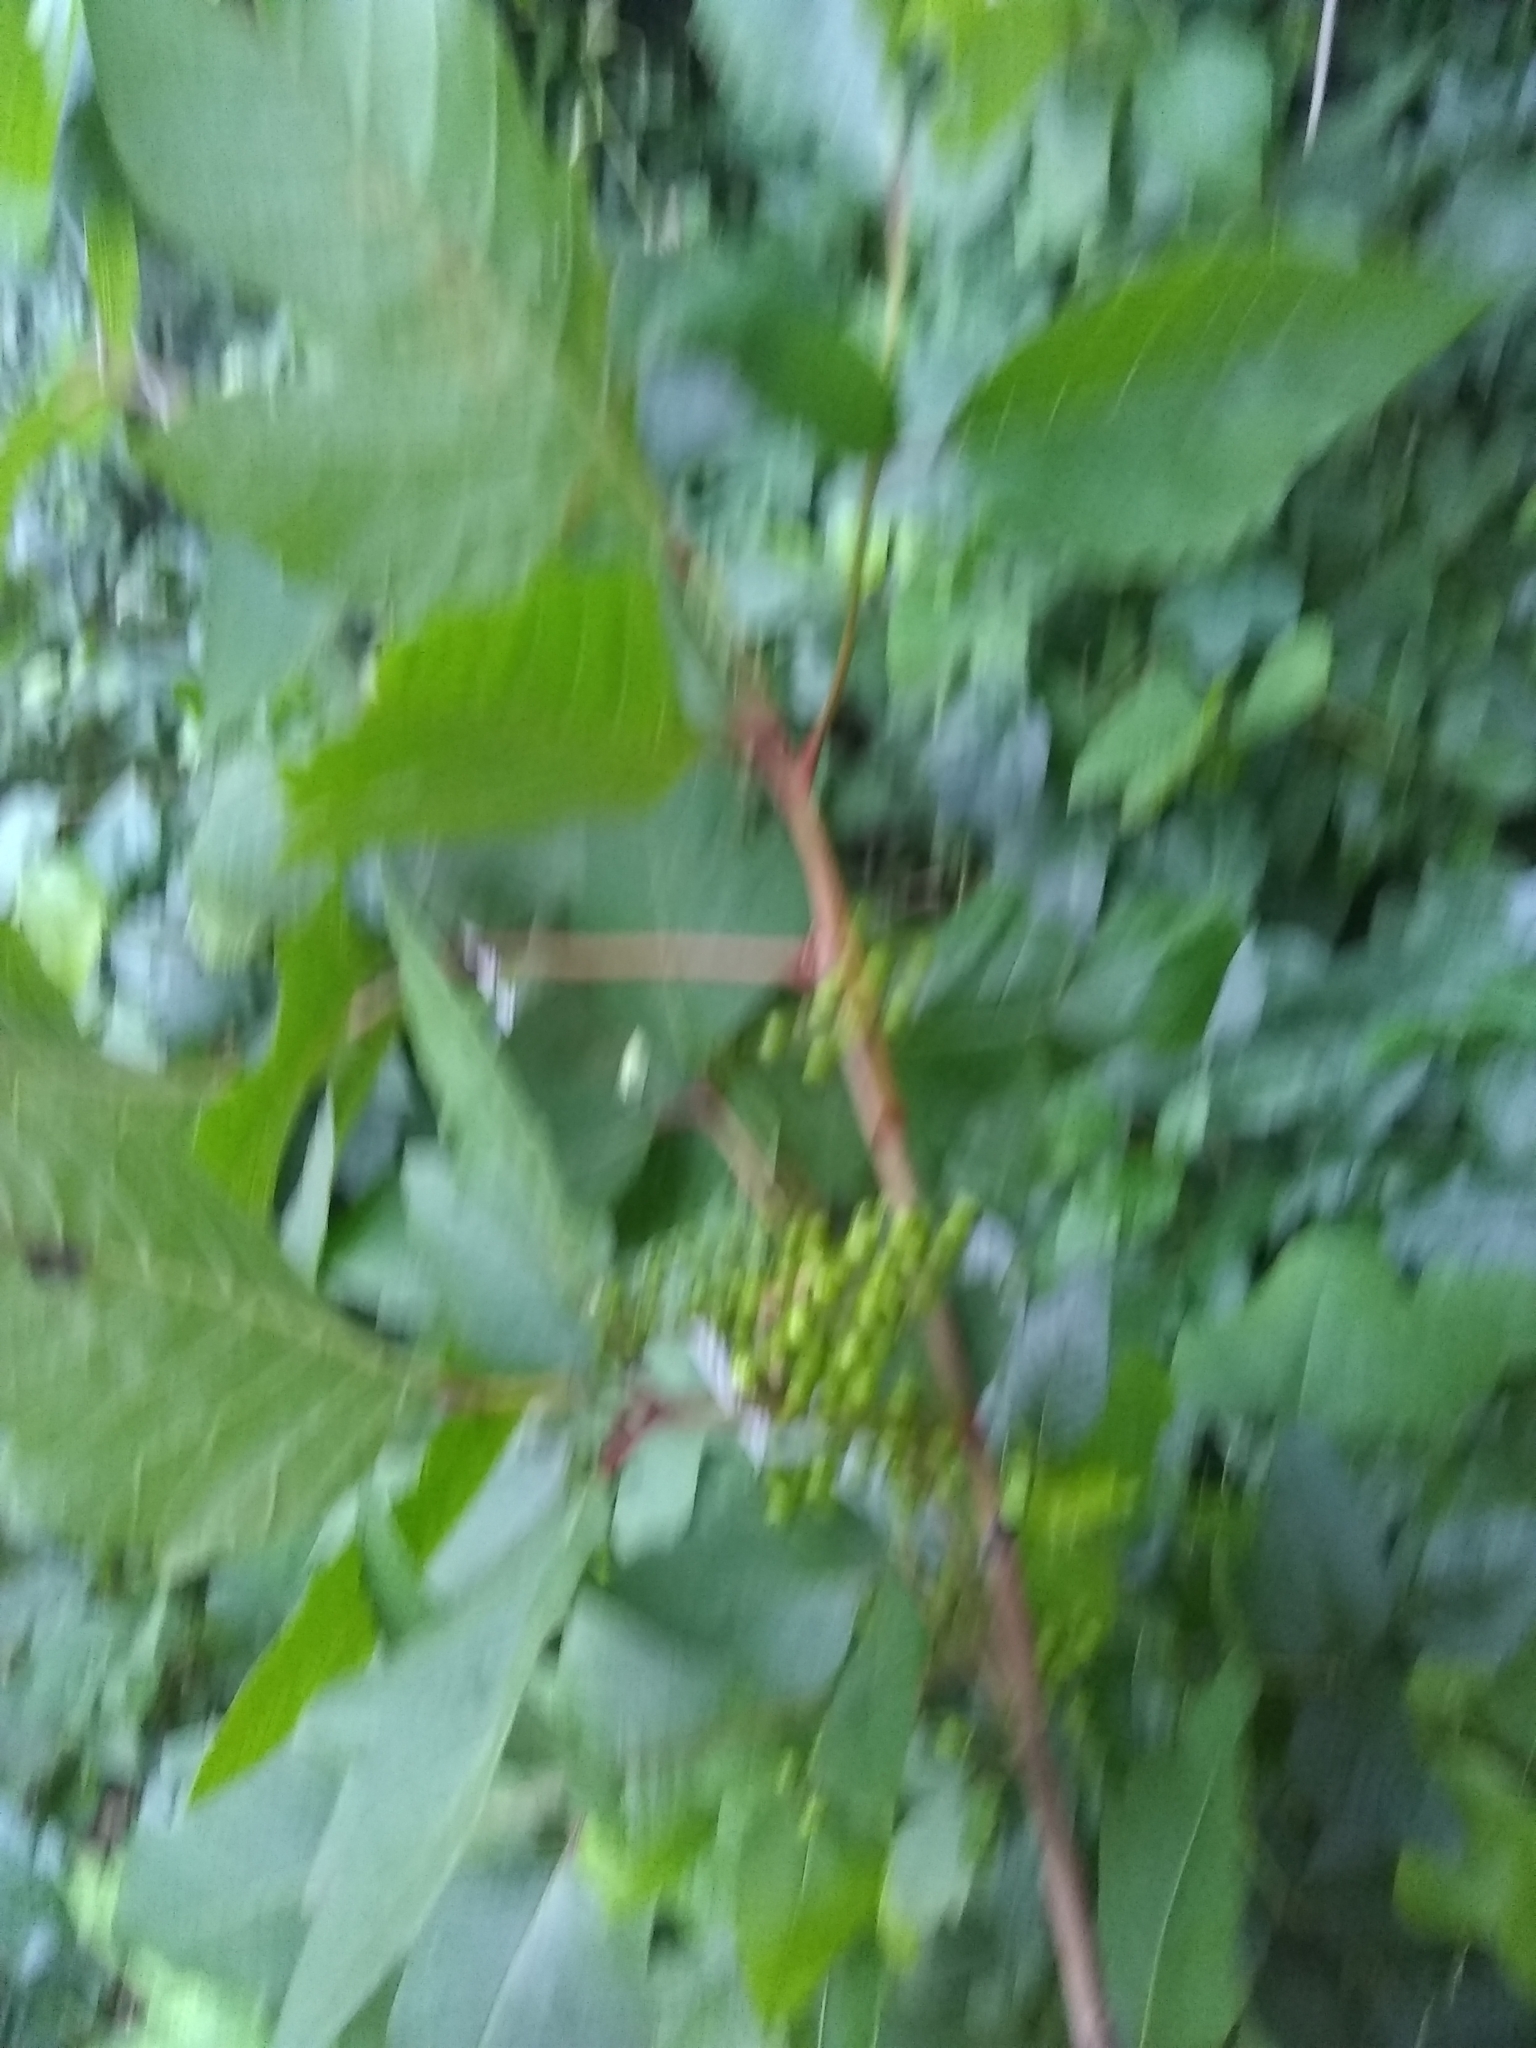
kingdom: Plantae
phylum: Tracheophyta
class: Magnoliopsida
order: Sapindales
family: Anacardiaceae
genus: Toxicodendron
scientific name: Toxicodendron radicans
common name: Poison ivy
